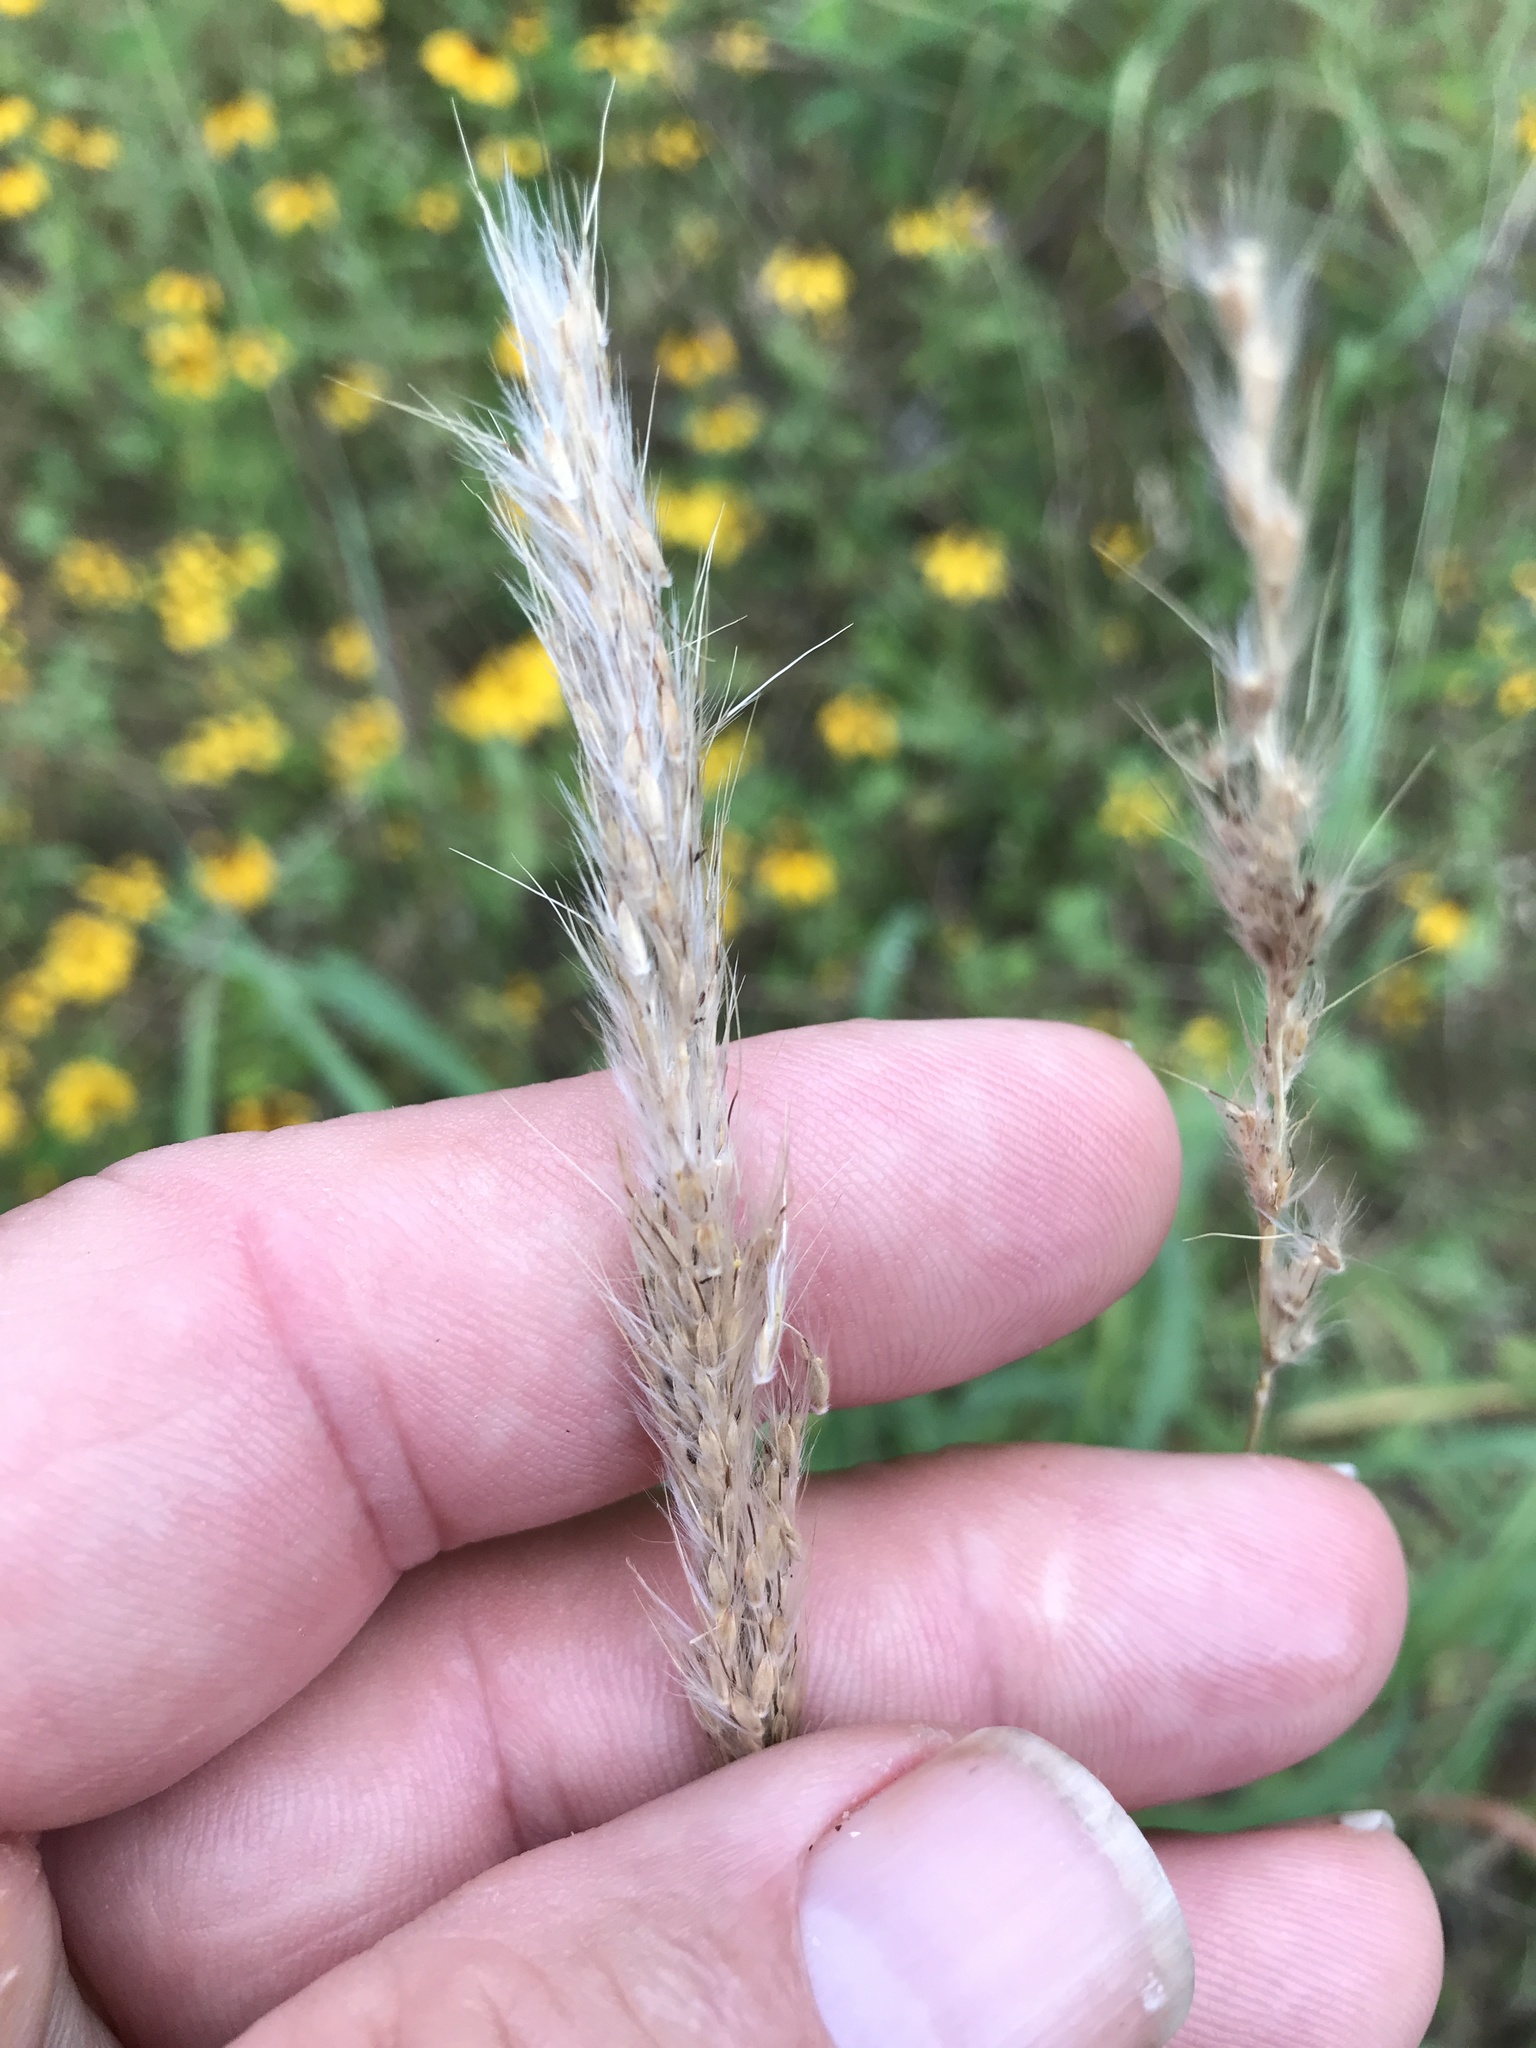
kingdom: Plantae
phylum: Tracheophyta
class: Liliopsida
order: Poales
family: Poaceae
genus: Bothriochloa
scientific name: Bothriochloa torreyana
